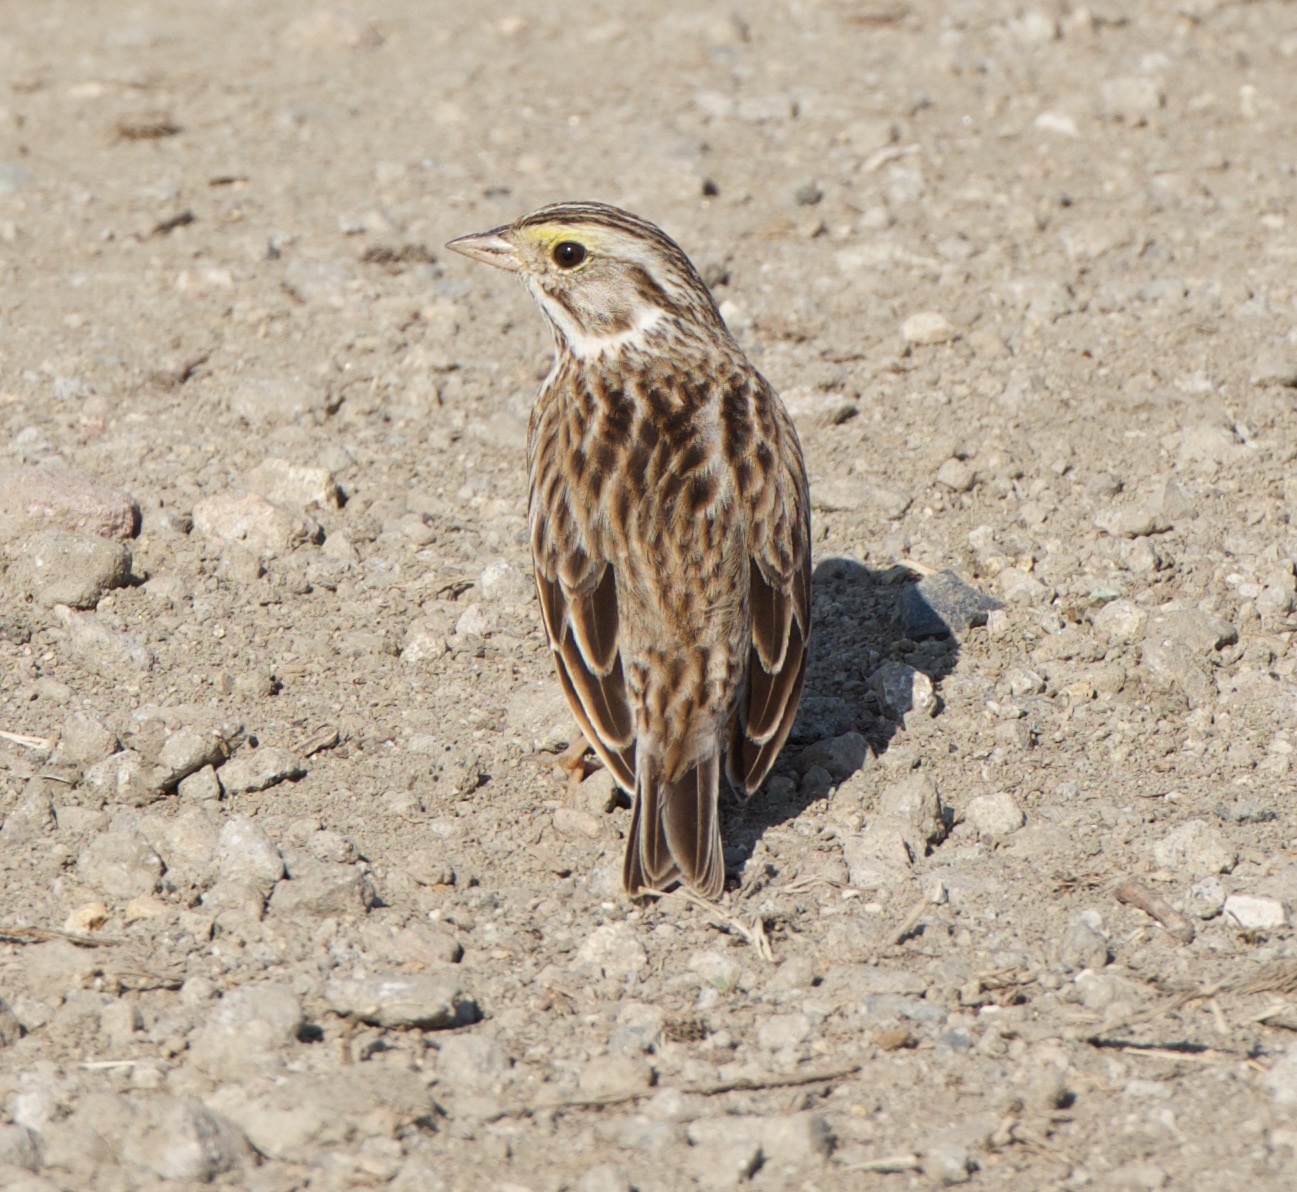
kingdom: Animalia
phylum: Chordata
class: Aves
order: Passeriformes
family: Passerellidae
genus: Passerculus
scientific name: Passerculus sandwichensis
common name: Savannah sparrow
